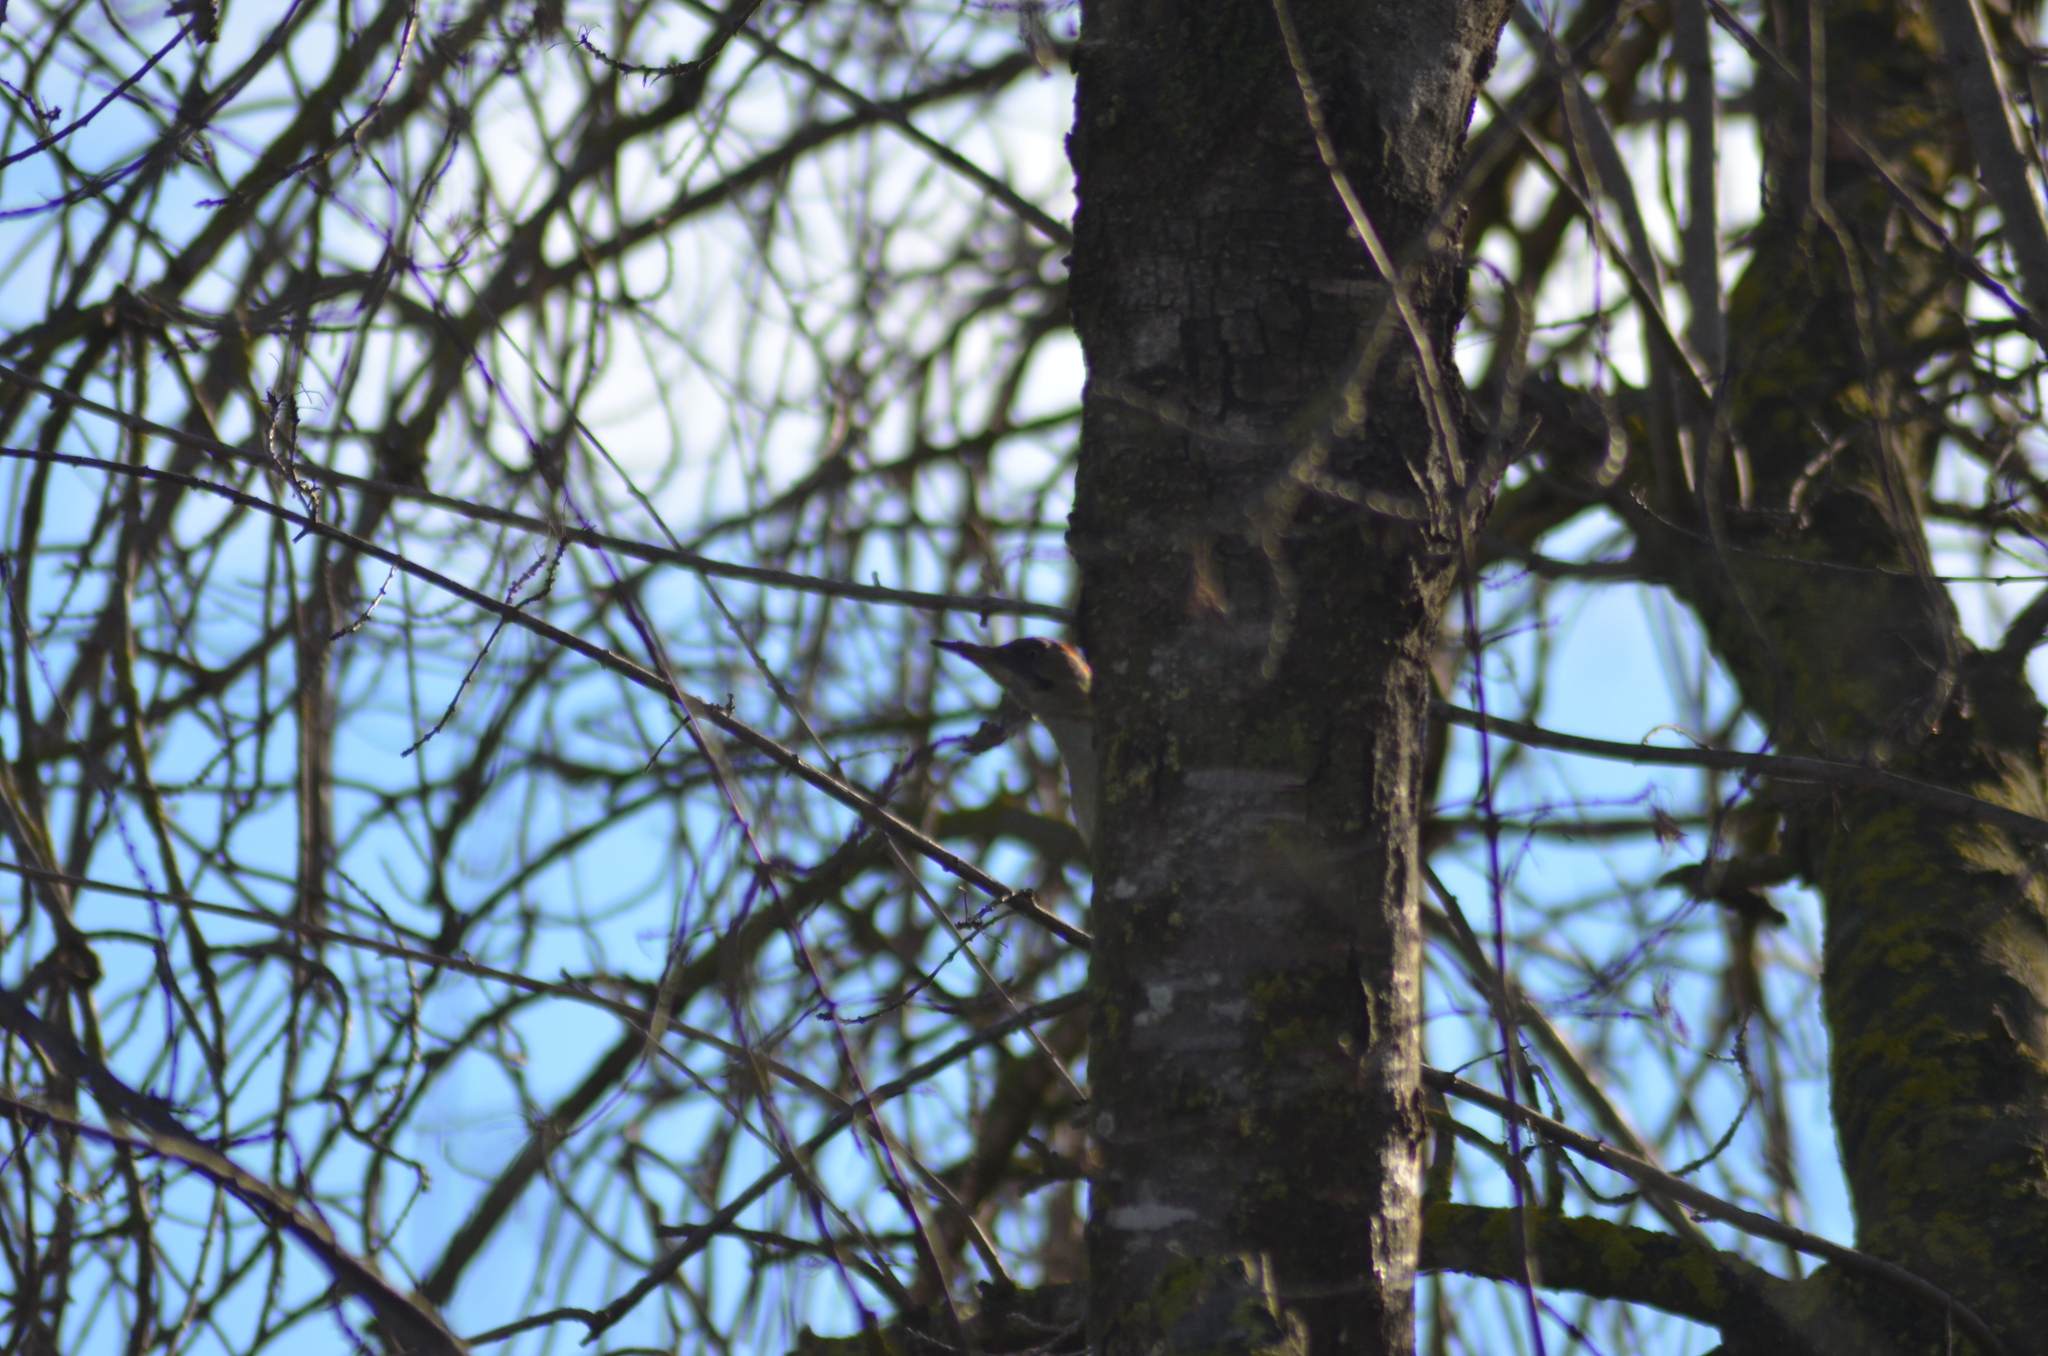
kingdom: Animalia
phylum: Chordata
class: Aves
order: Piciformes
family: Picidae
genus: Picus
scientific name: Picus sharpei
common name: Iberian green woodpecker
